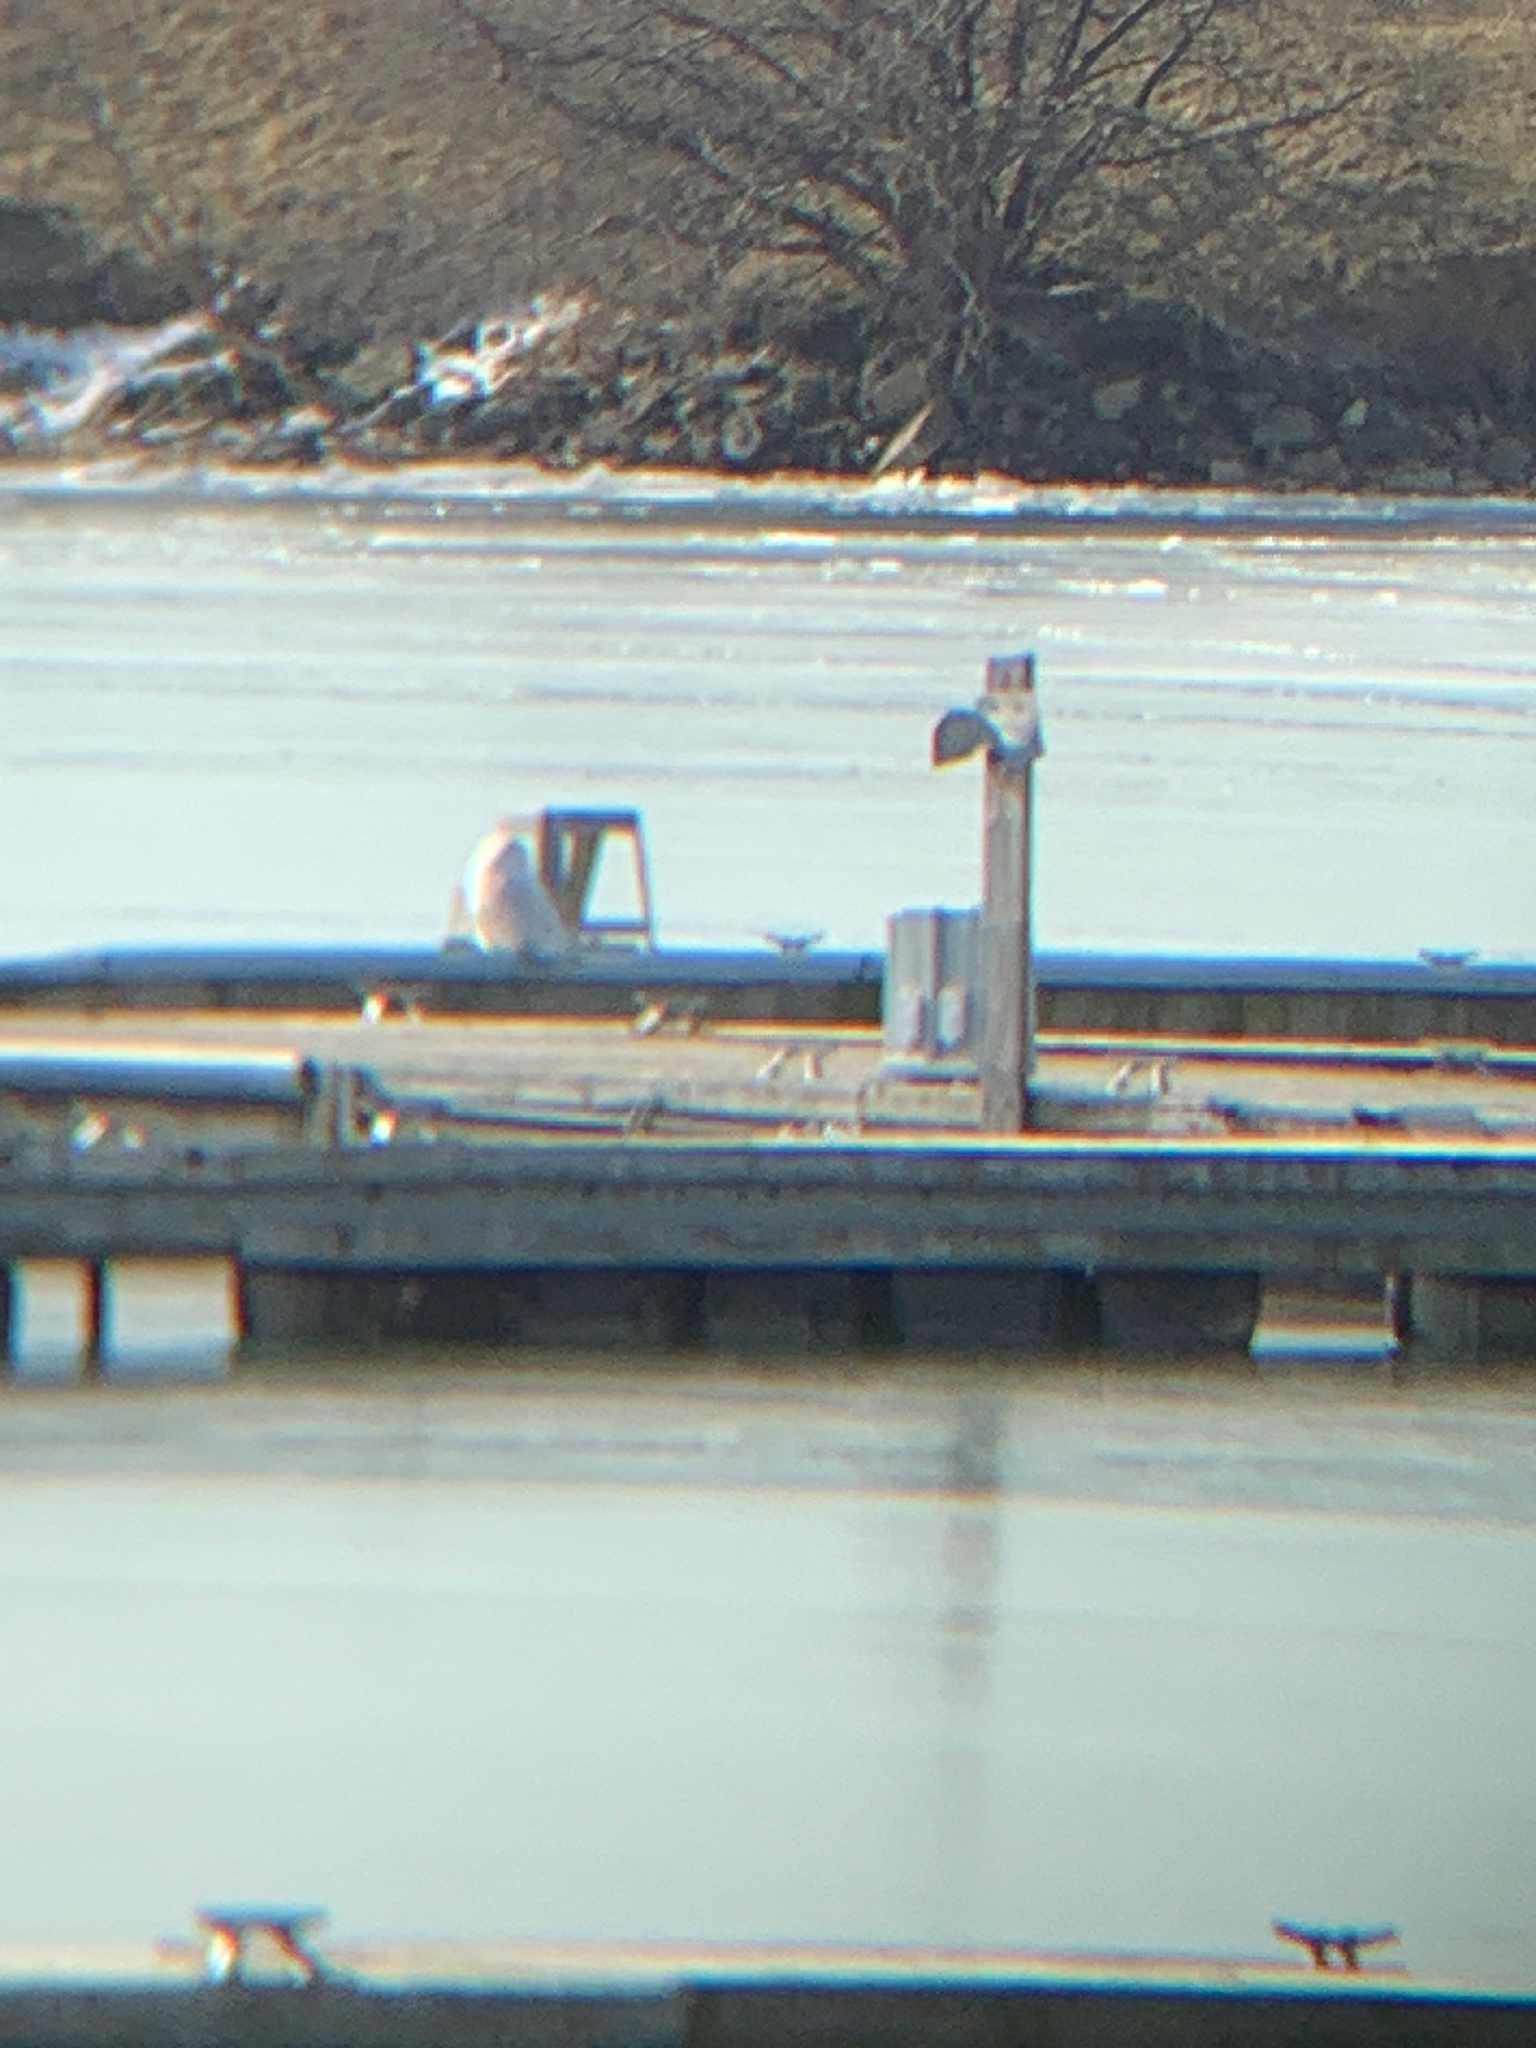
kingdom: Animalia
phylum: Chordata
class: Aves
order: Strigiformes
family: Strigidae
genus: Bubo
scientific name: Bubo scandiacus
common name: Snowy owl
